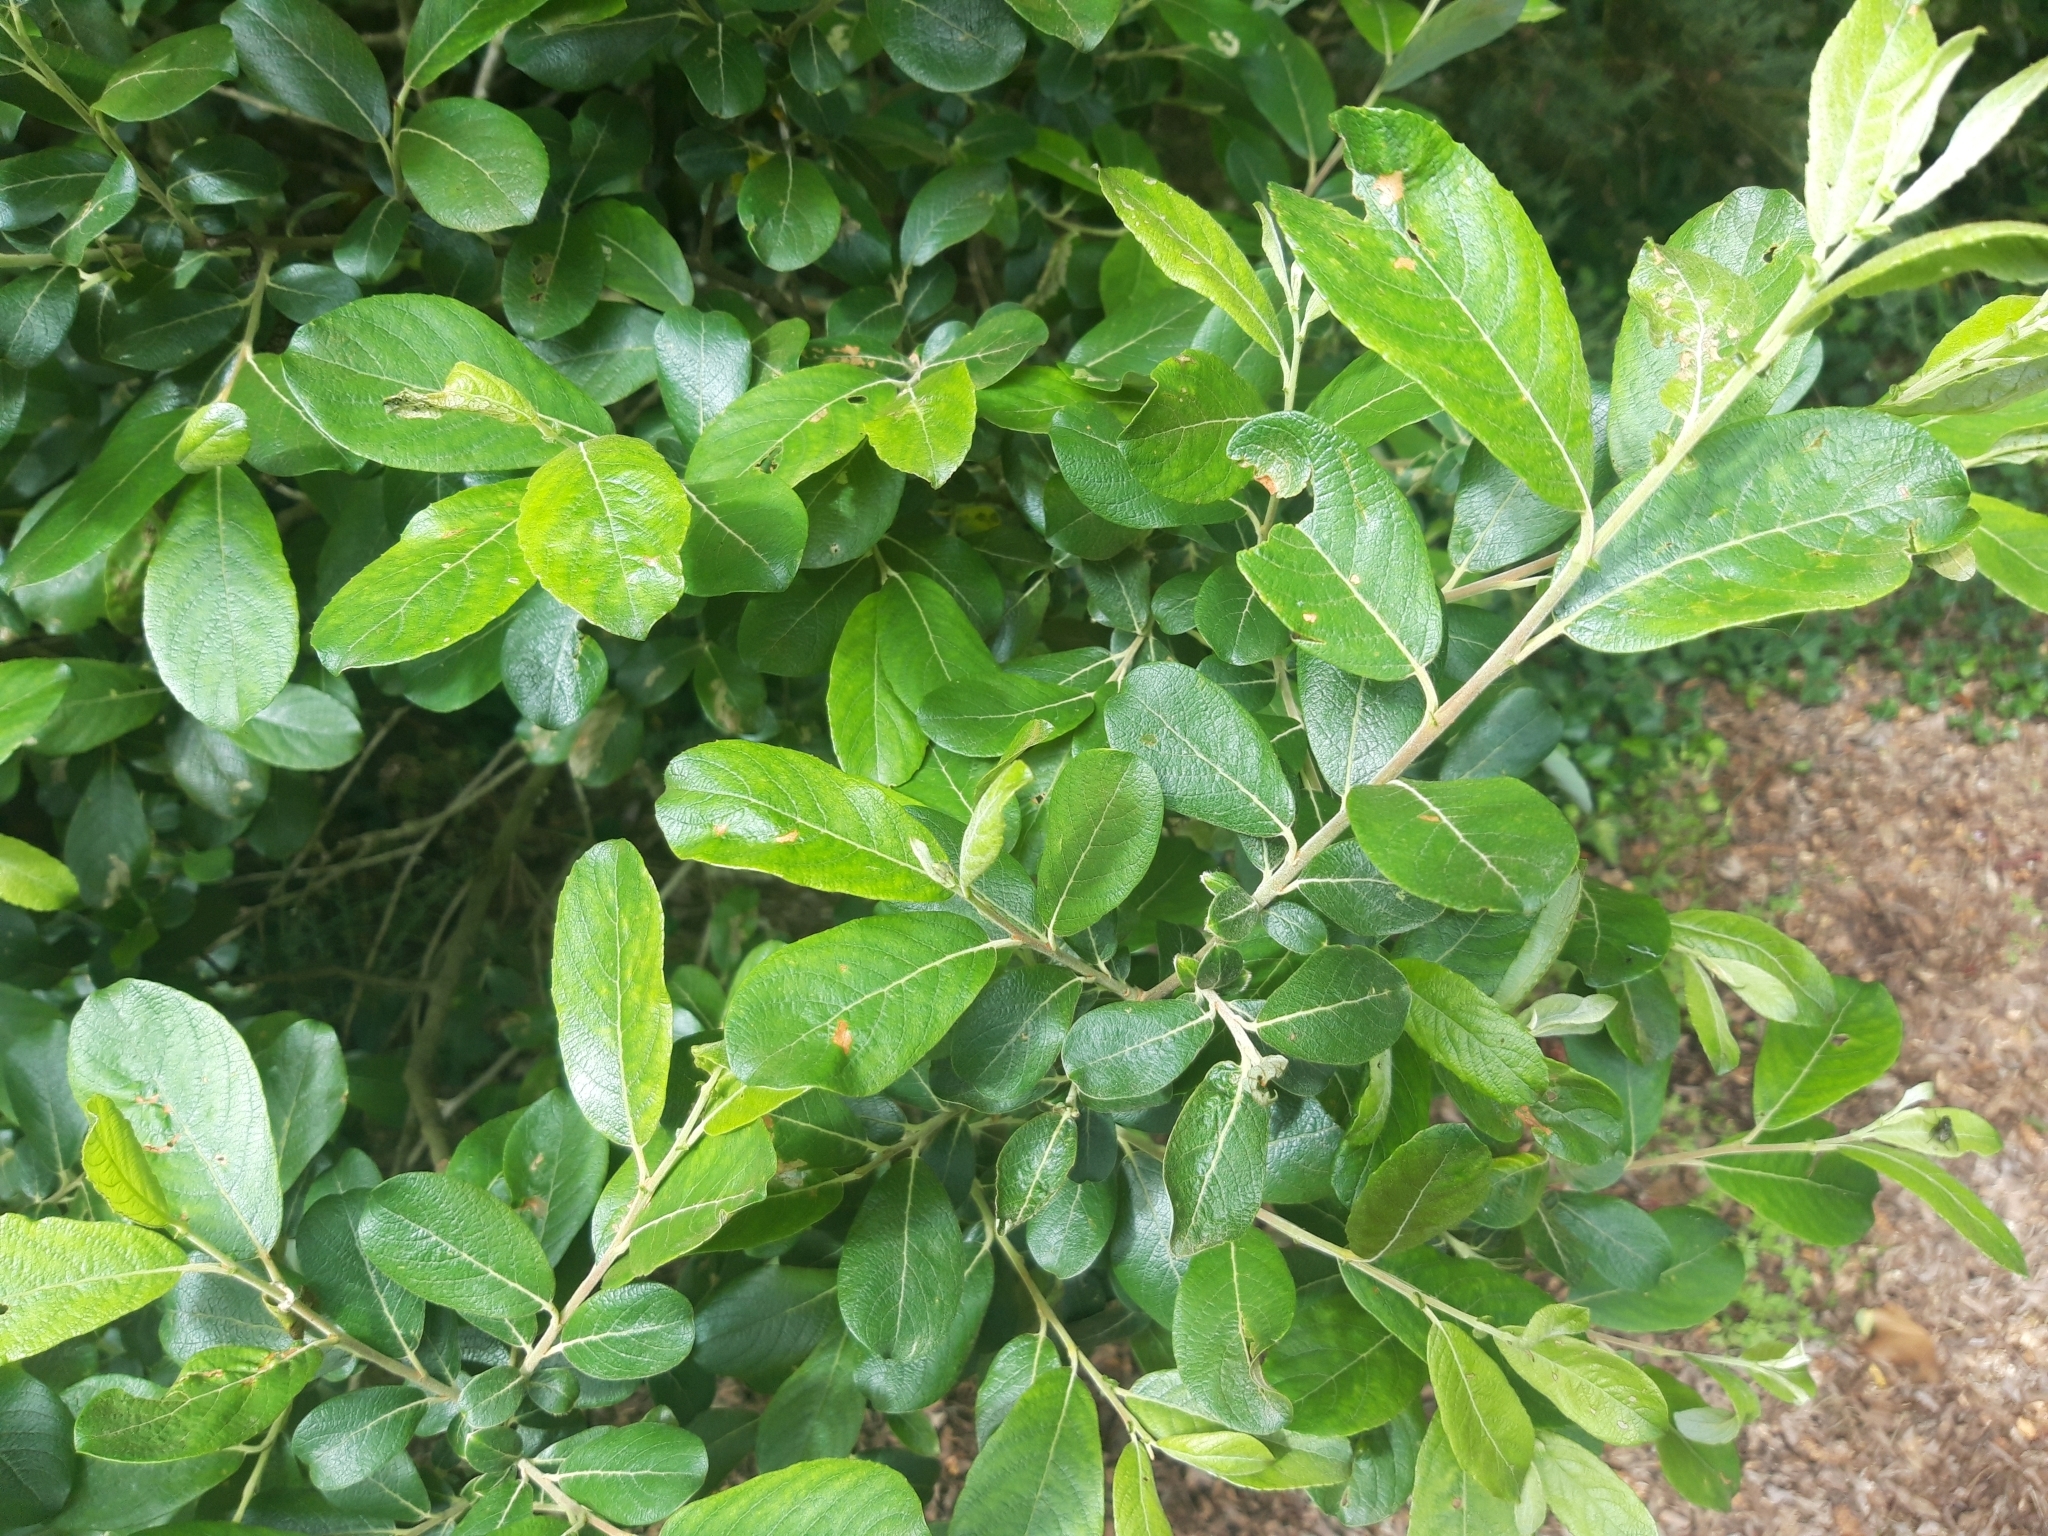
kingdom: Plantae
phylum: Tracheophyta
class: Magnoliopsida
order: Malpighiales
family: Salicaceae
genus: Salix
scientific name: Salix atrocinerea
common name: Rusty willow
